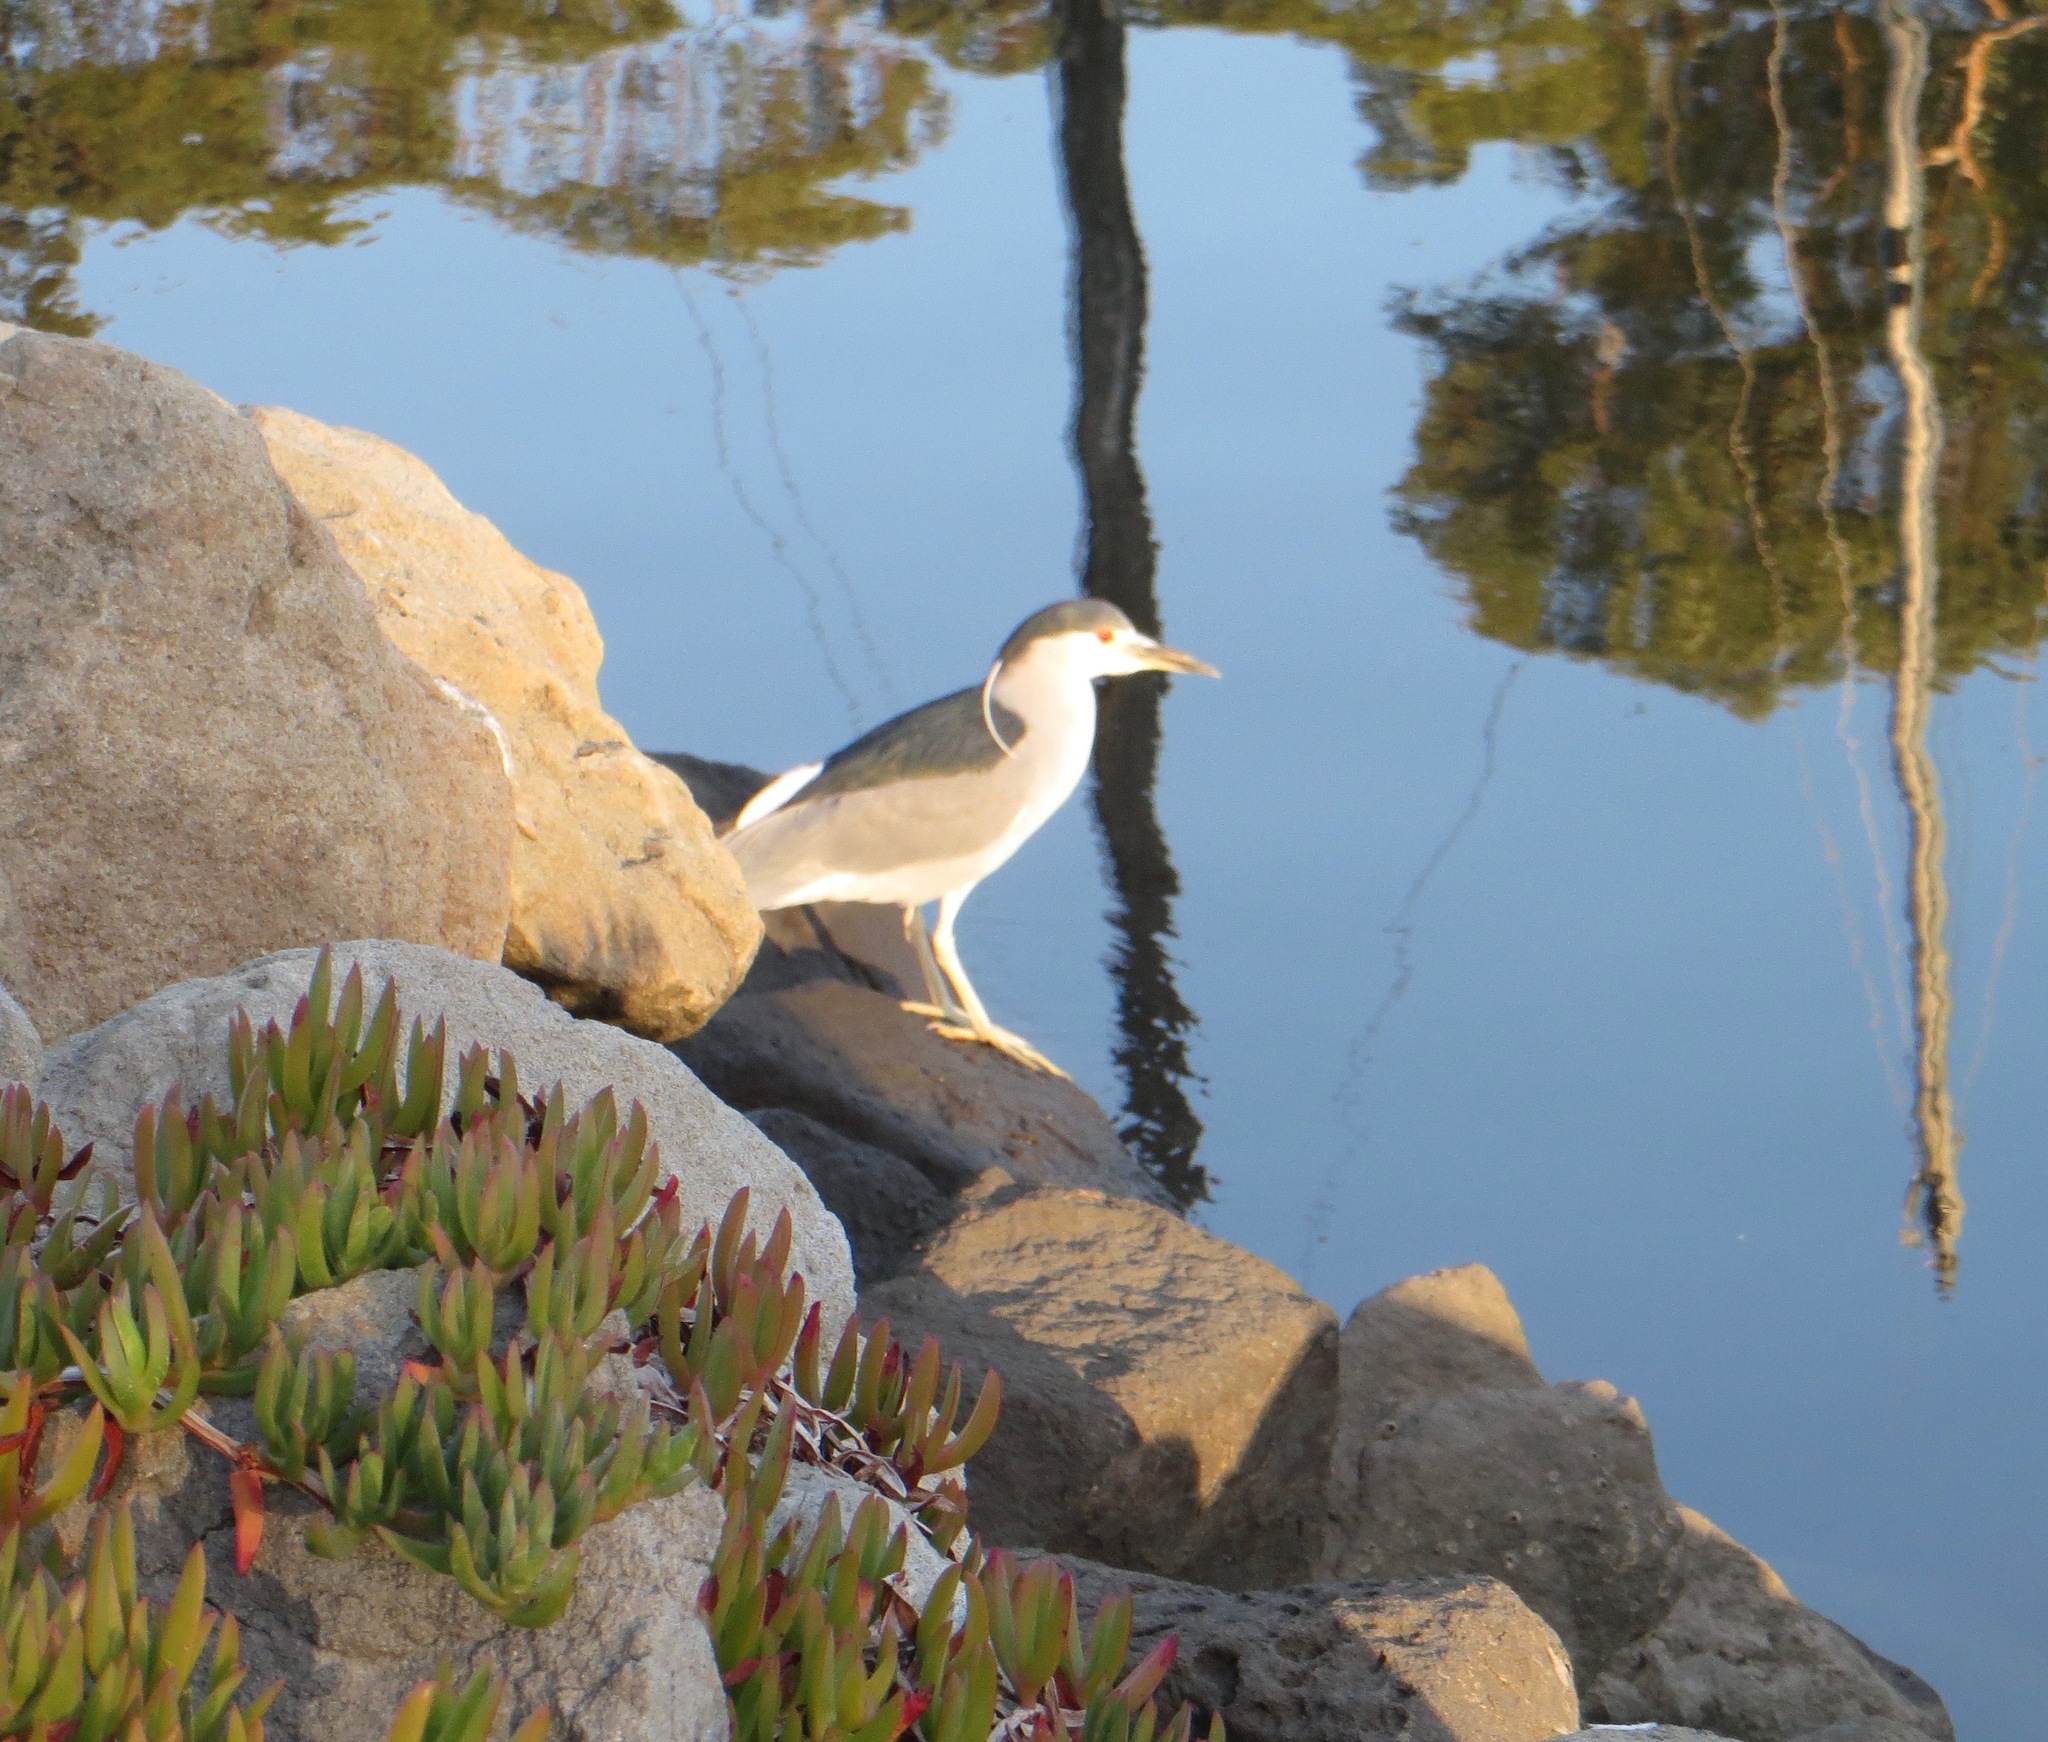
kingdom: Animalia
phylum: Chordata
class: Aves
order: Pelecaniformes
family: Ardeidae
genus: Nycticorax
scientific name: Nycticorax nycticorax
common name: Black-crowned night heron
